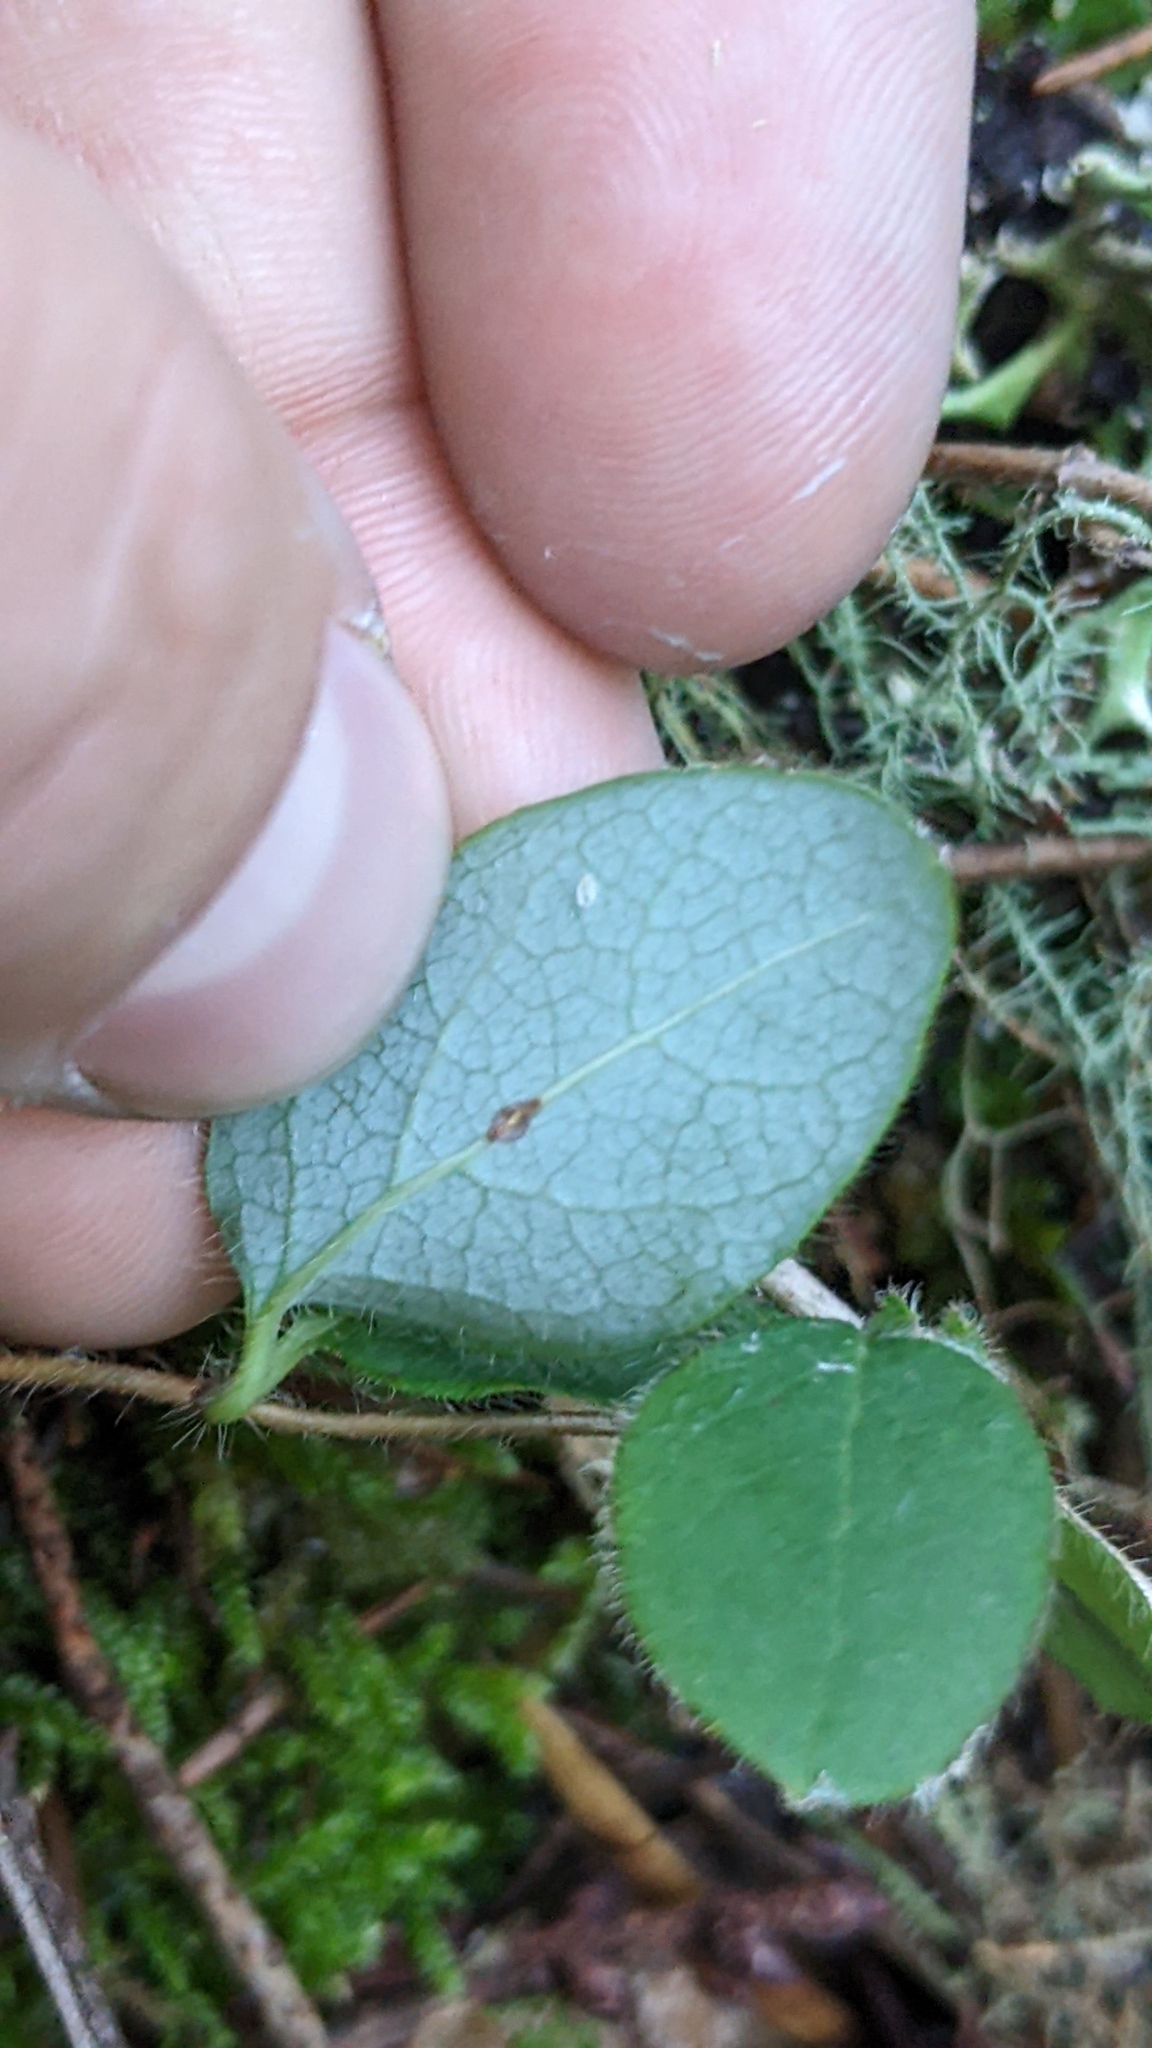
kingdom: Plantae
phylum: Tracheophyta
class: Magnoliopsida
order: Dipsacales
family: Caprifoliaceae
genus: Lonicera
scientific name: Lonicera hispidula
